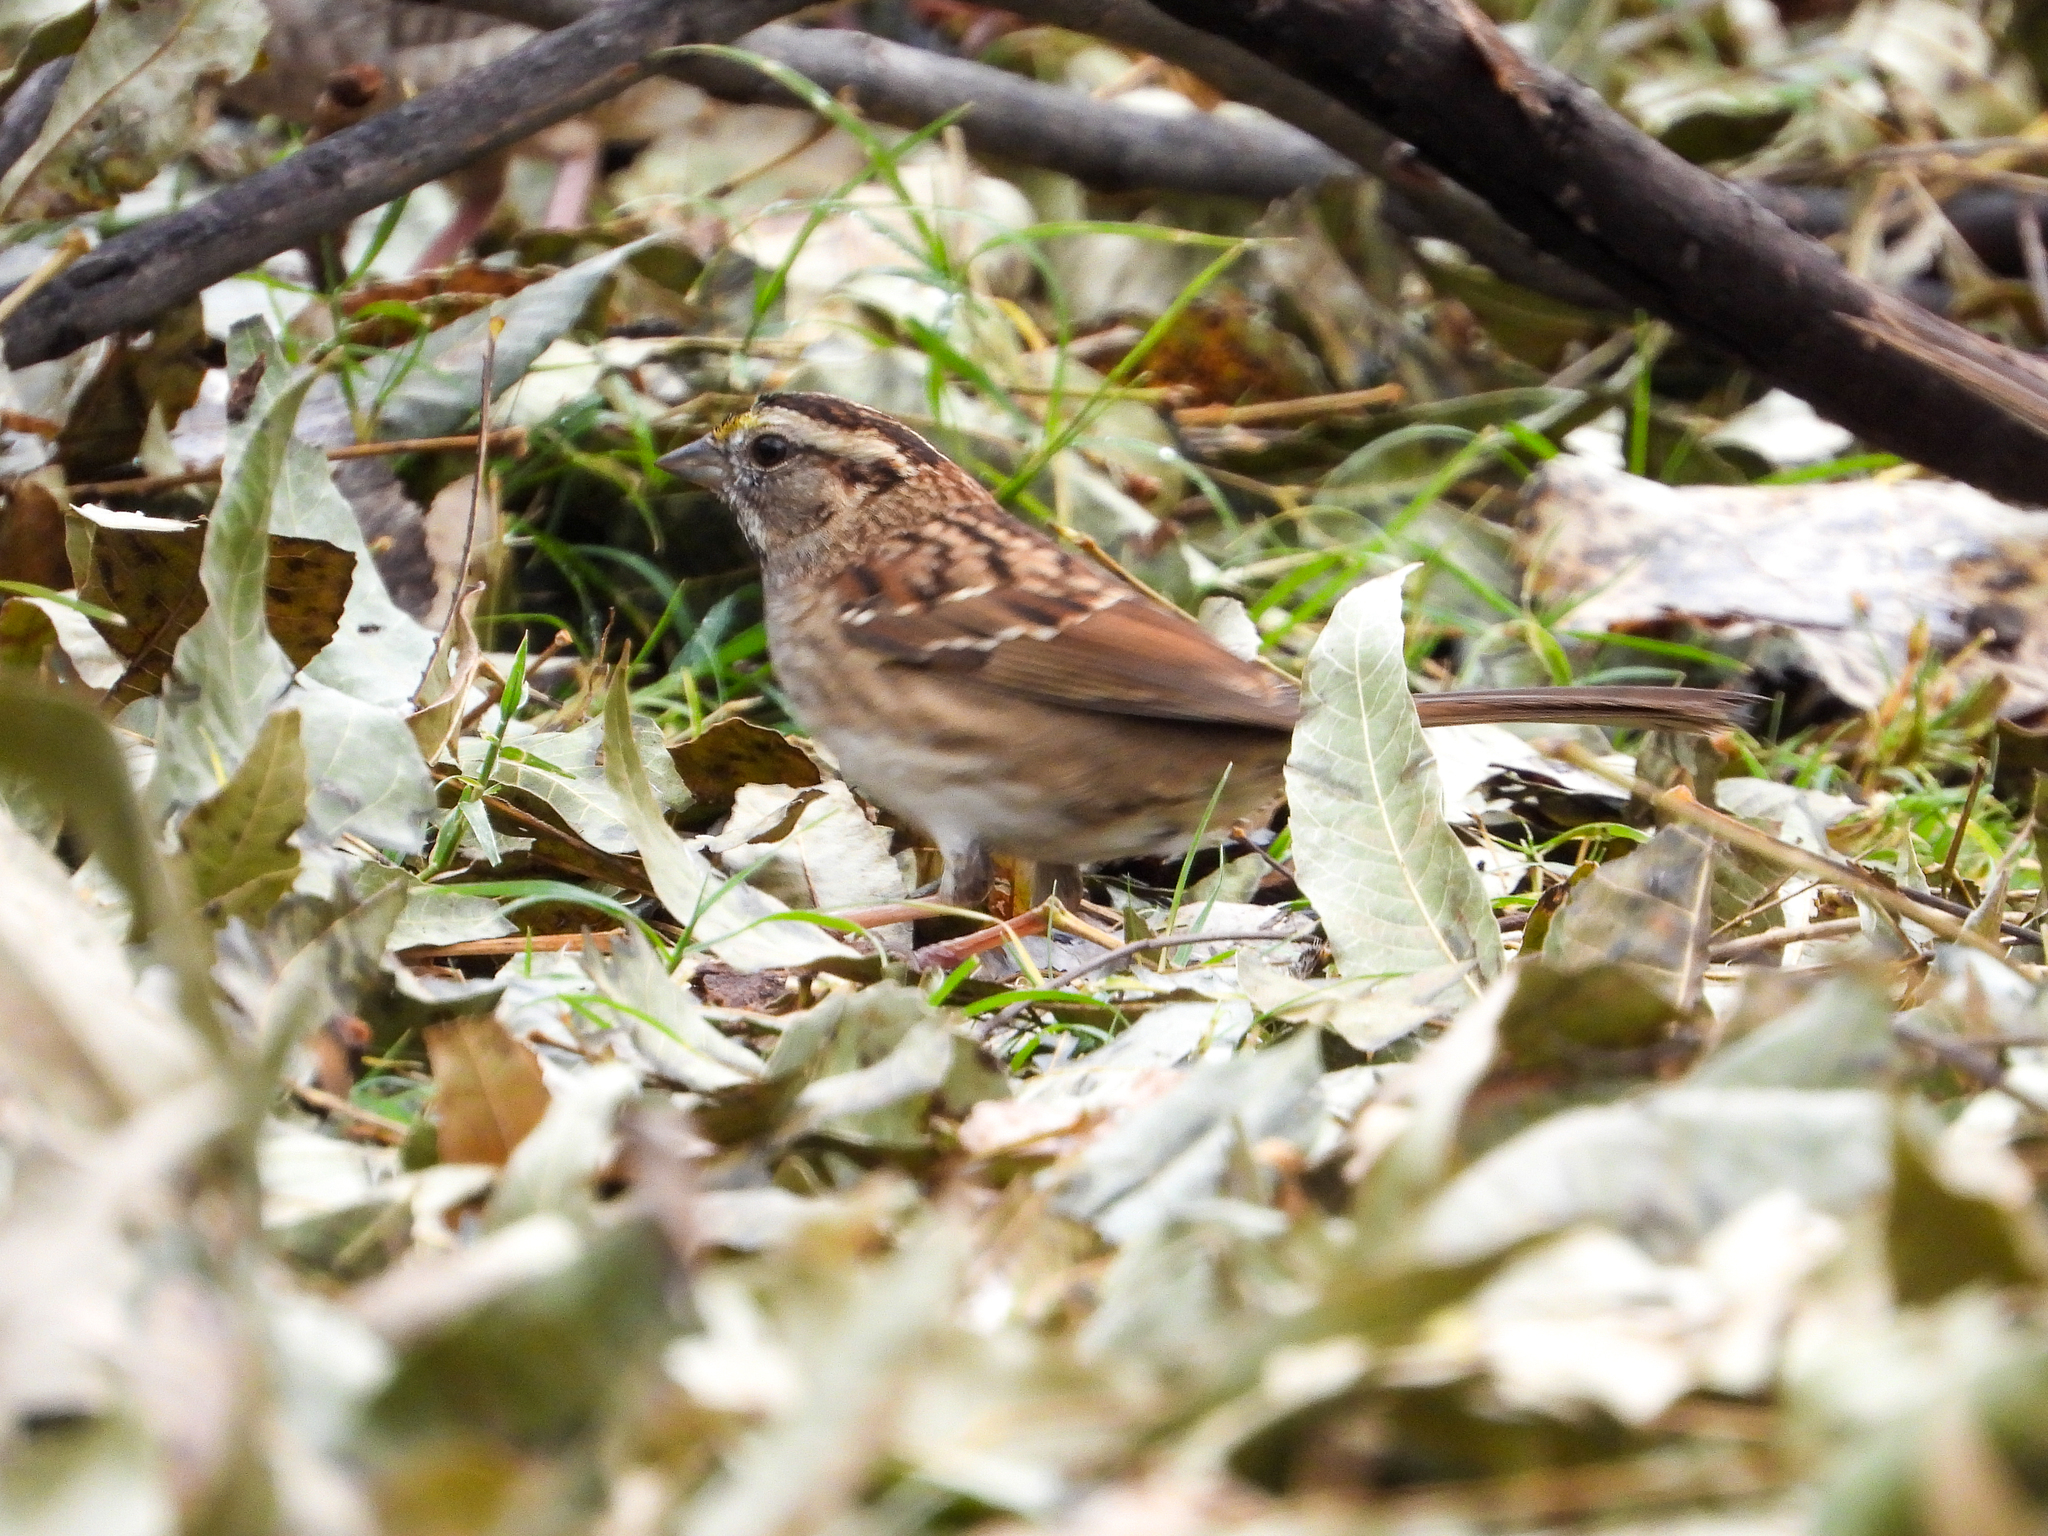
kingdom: Animalia
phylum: Chordata
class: Aves
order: Passeriformes
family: Passerellidae
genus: Zonotrichia
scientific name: Zonotrichia albicollis
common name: White-throated sparrow
